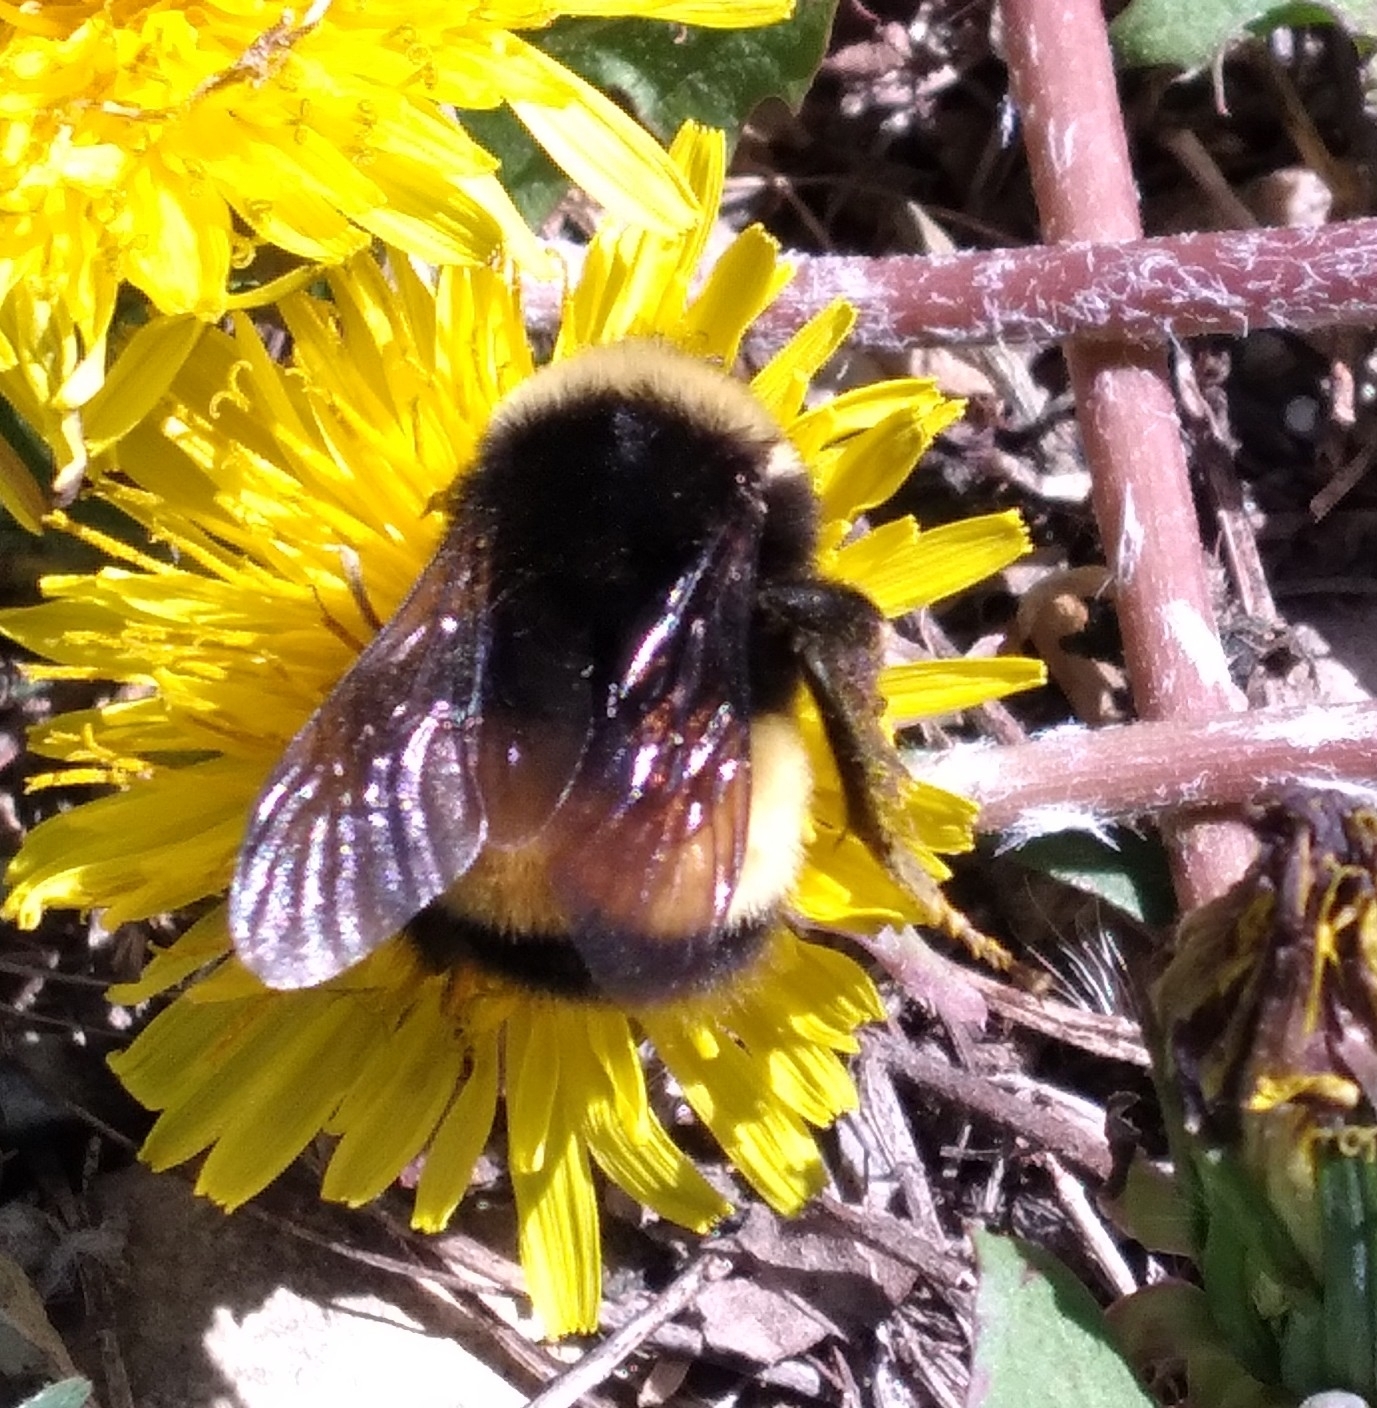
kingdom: Animalia
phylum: Arthropoda
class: Insecta
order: Hymenoptera
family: Apidae
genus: Bombus
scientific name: Bombus terricola
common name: Yellow-banded bumble bee
